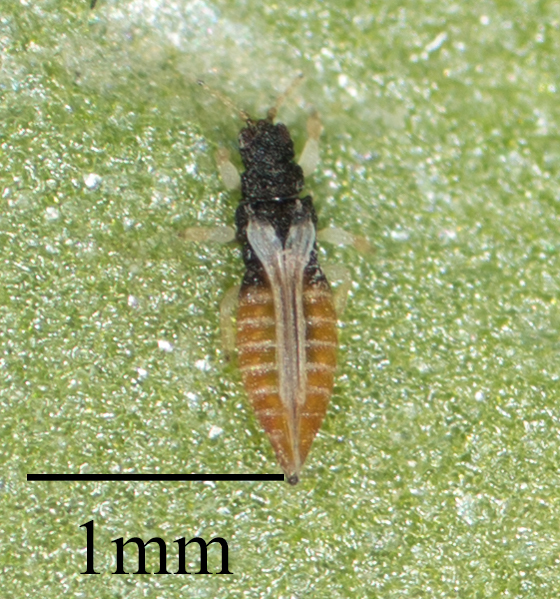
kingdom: Animalia
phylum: Arthropoda
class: Insecta
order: Thysanoptera
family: Thripidae
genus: Heliothrips
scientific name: Heliothrips haemorrhoidalis
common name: Thrips
